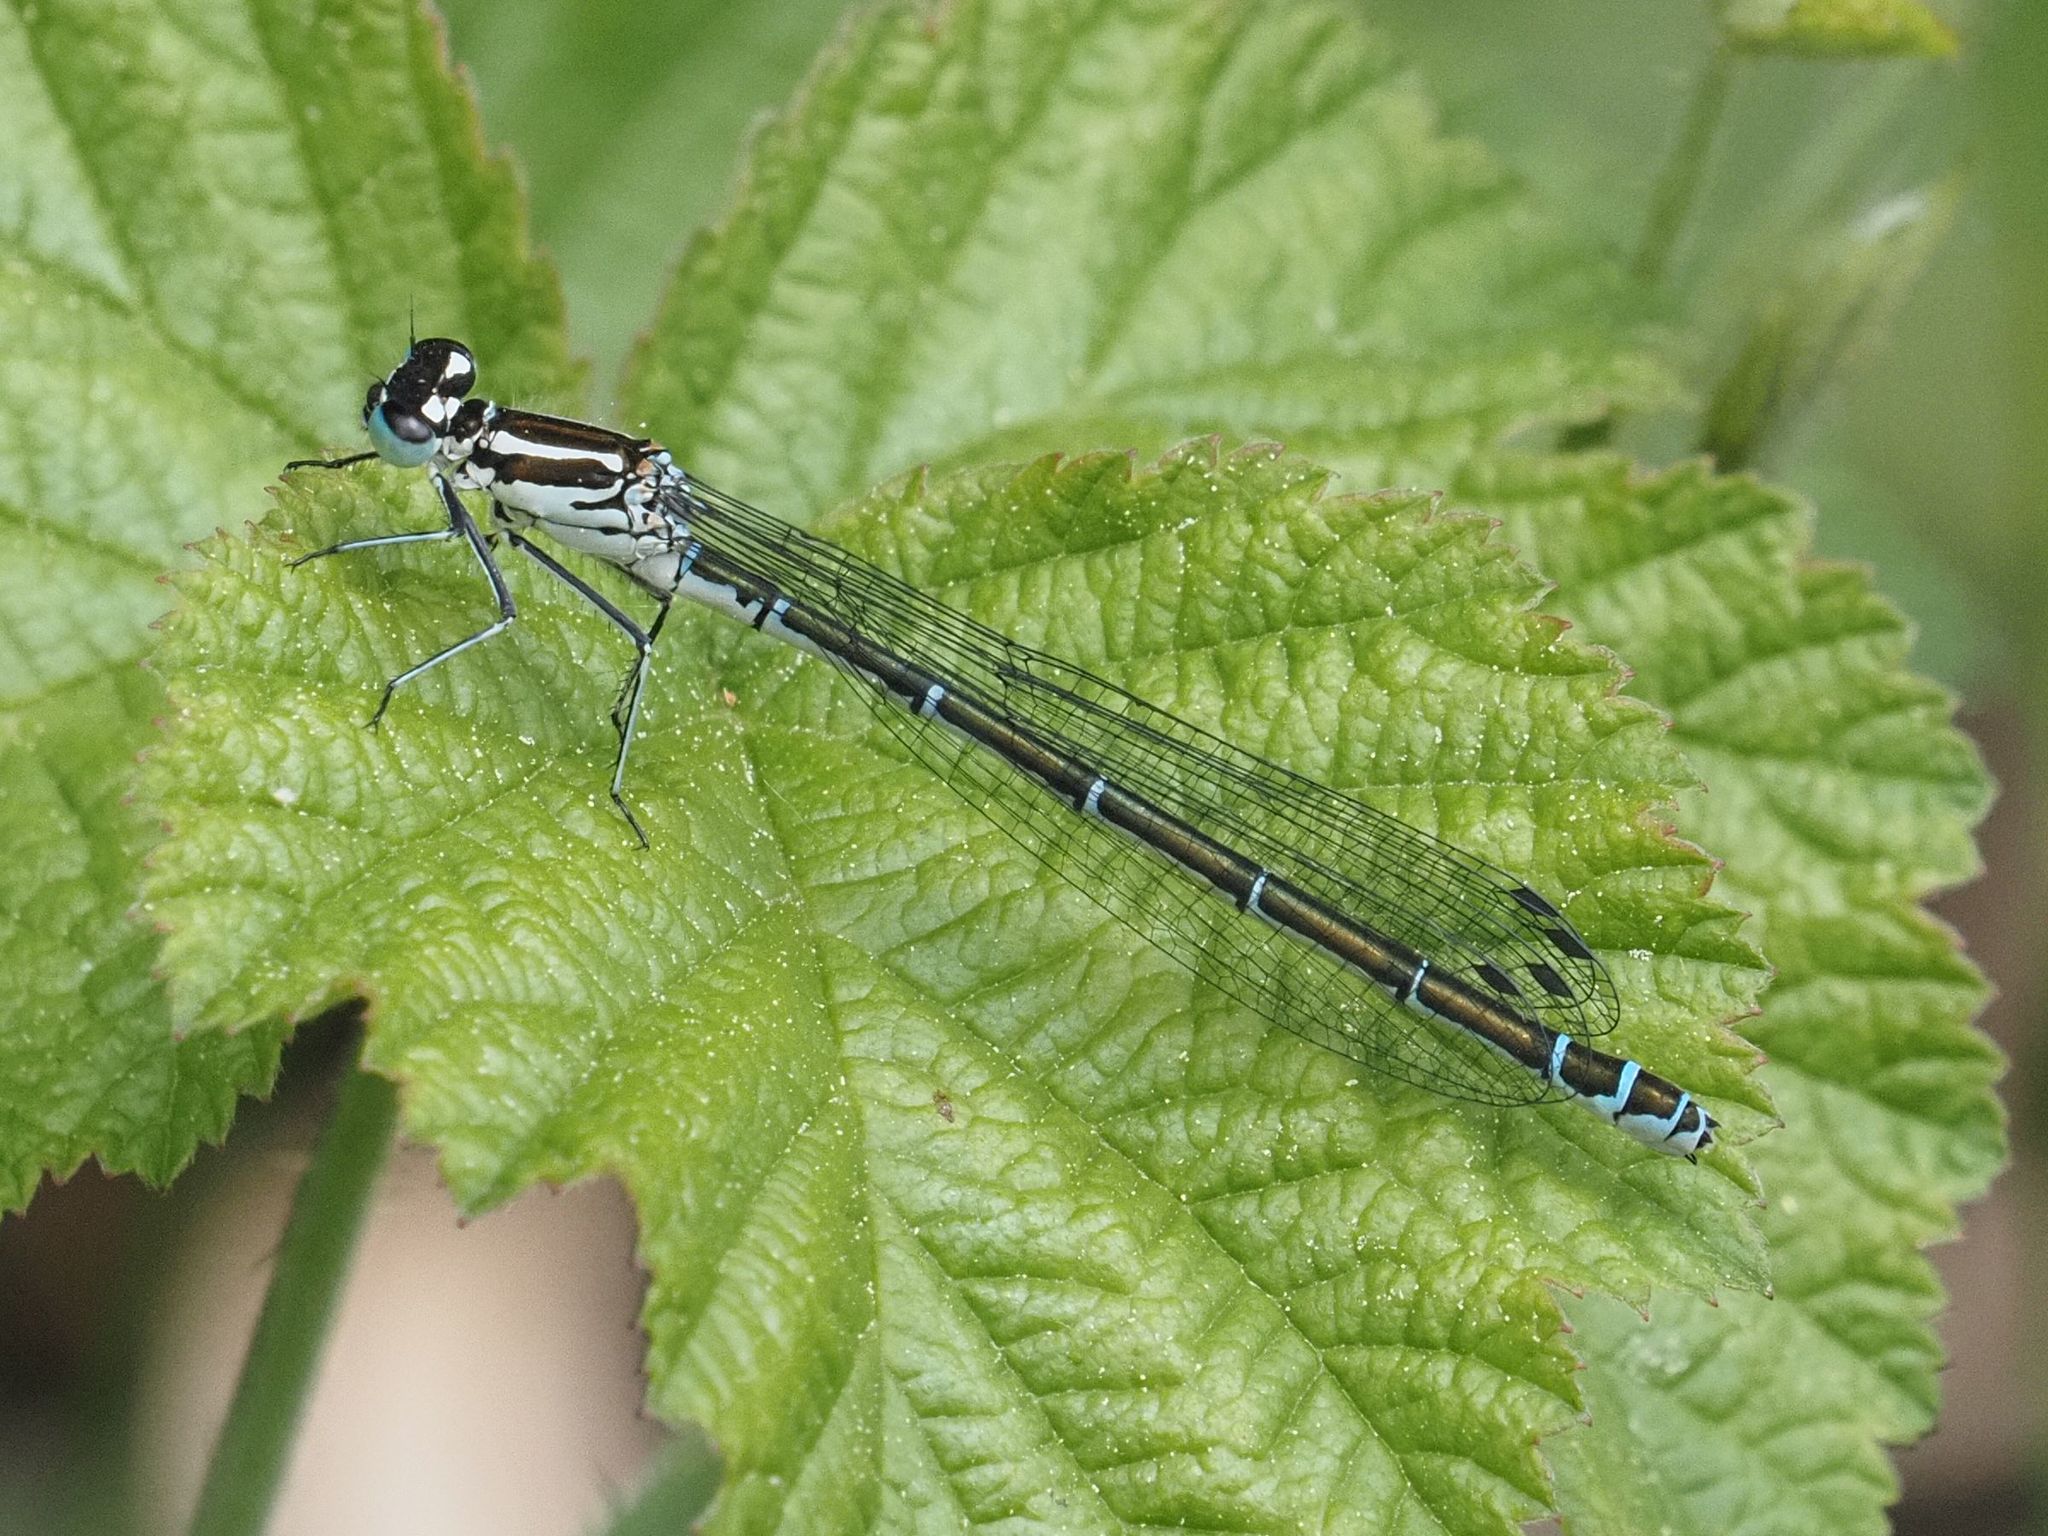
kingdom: Animalia
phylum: Arthropoda
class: Insecta
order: Odonata
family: Coenagrionidae
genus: Coenagrion
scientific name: Coenagrion puella
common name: Azure damselfly
